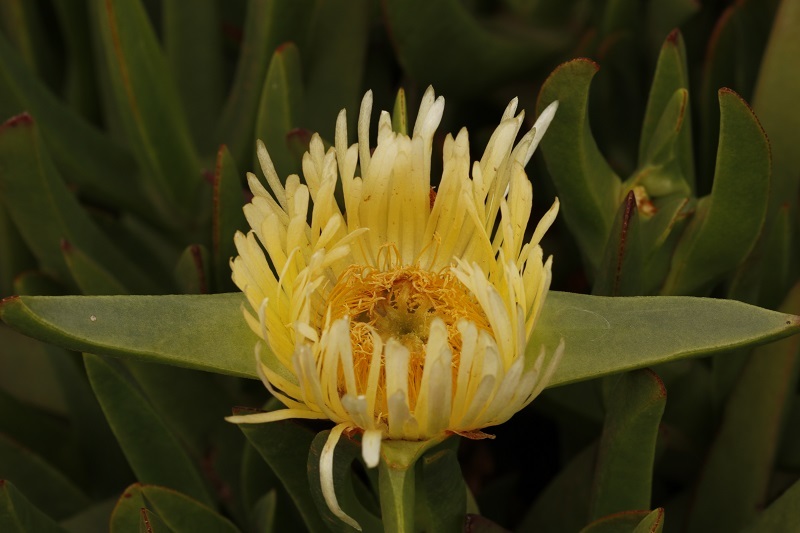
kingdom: Plantae
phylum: Tracheophyta
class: Magnoliopsida
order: Caryophyllales
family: Aizoaceae
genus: Carpobrotus
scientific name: Carpobrotus edulis
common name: Hottentot-fig
